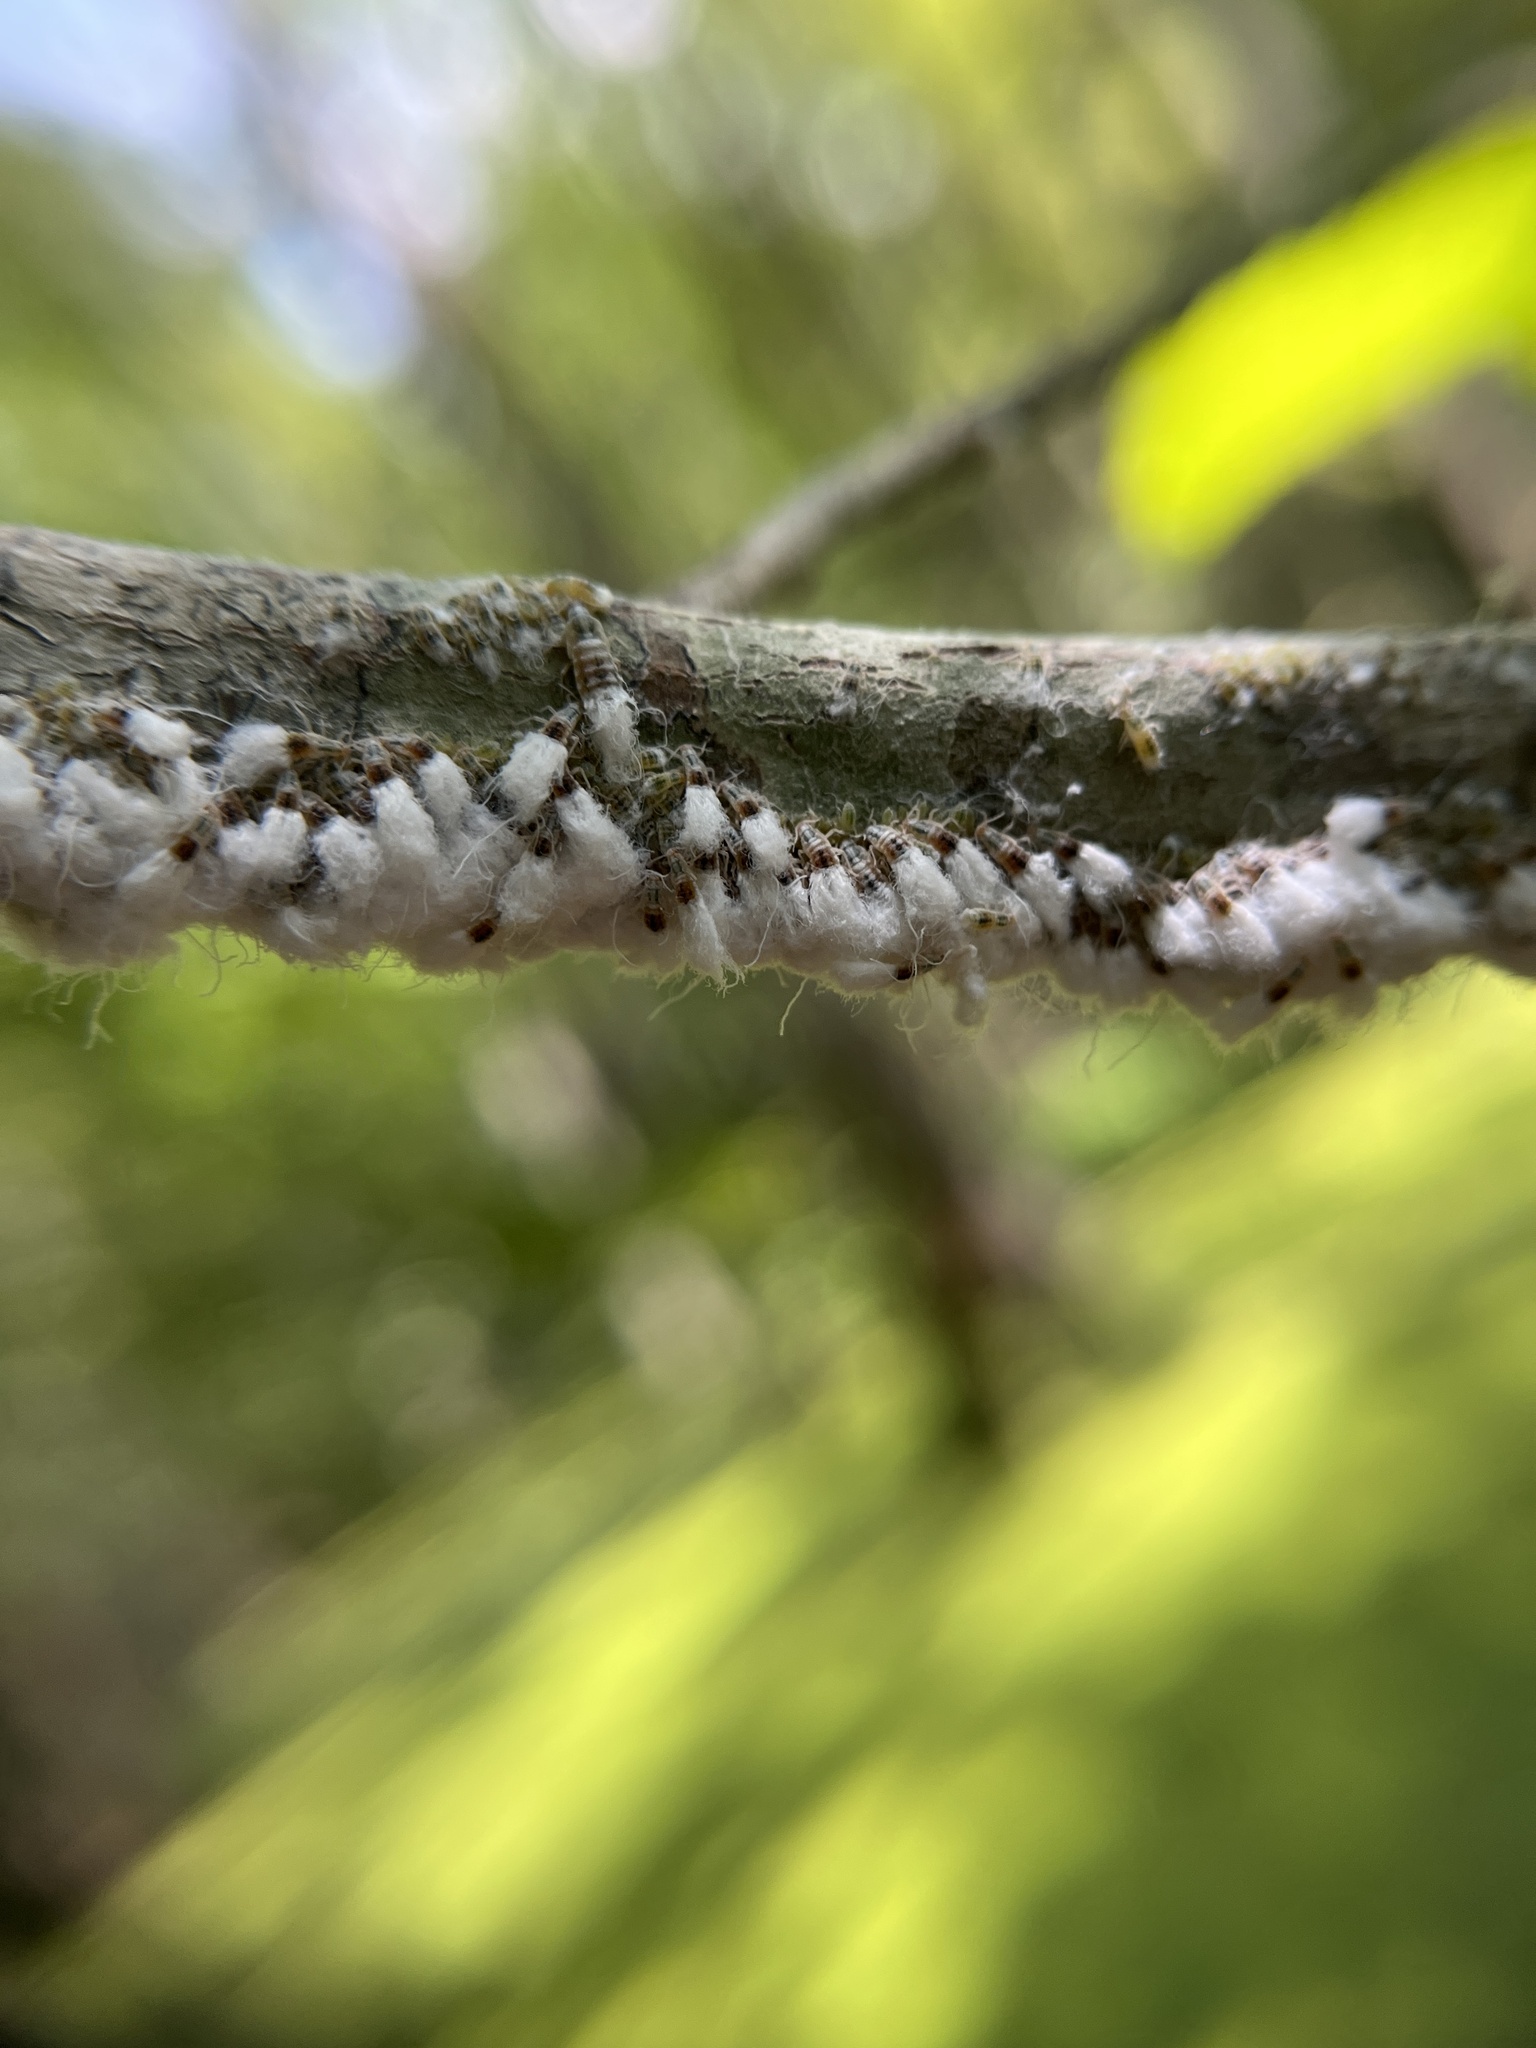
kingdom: Animalia
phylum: Arthropoda
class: Insecta
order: Hemiptera
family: Aphididae
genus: Grylloprociphilus
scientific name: Grylloprociphilus imbricator
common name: Beech blight aphid
